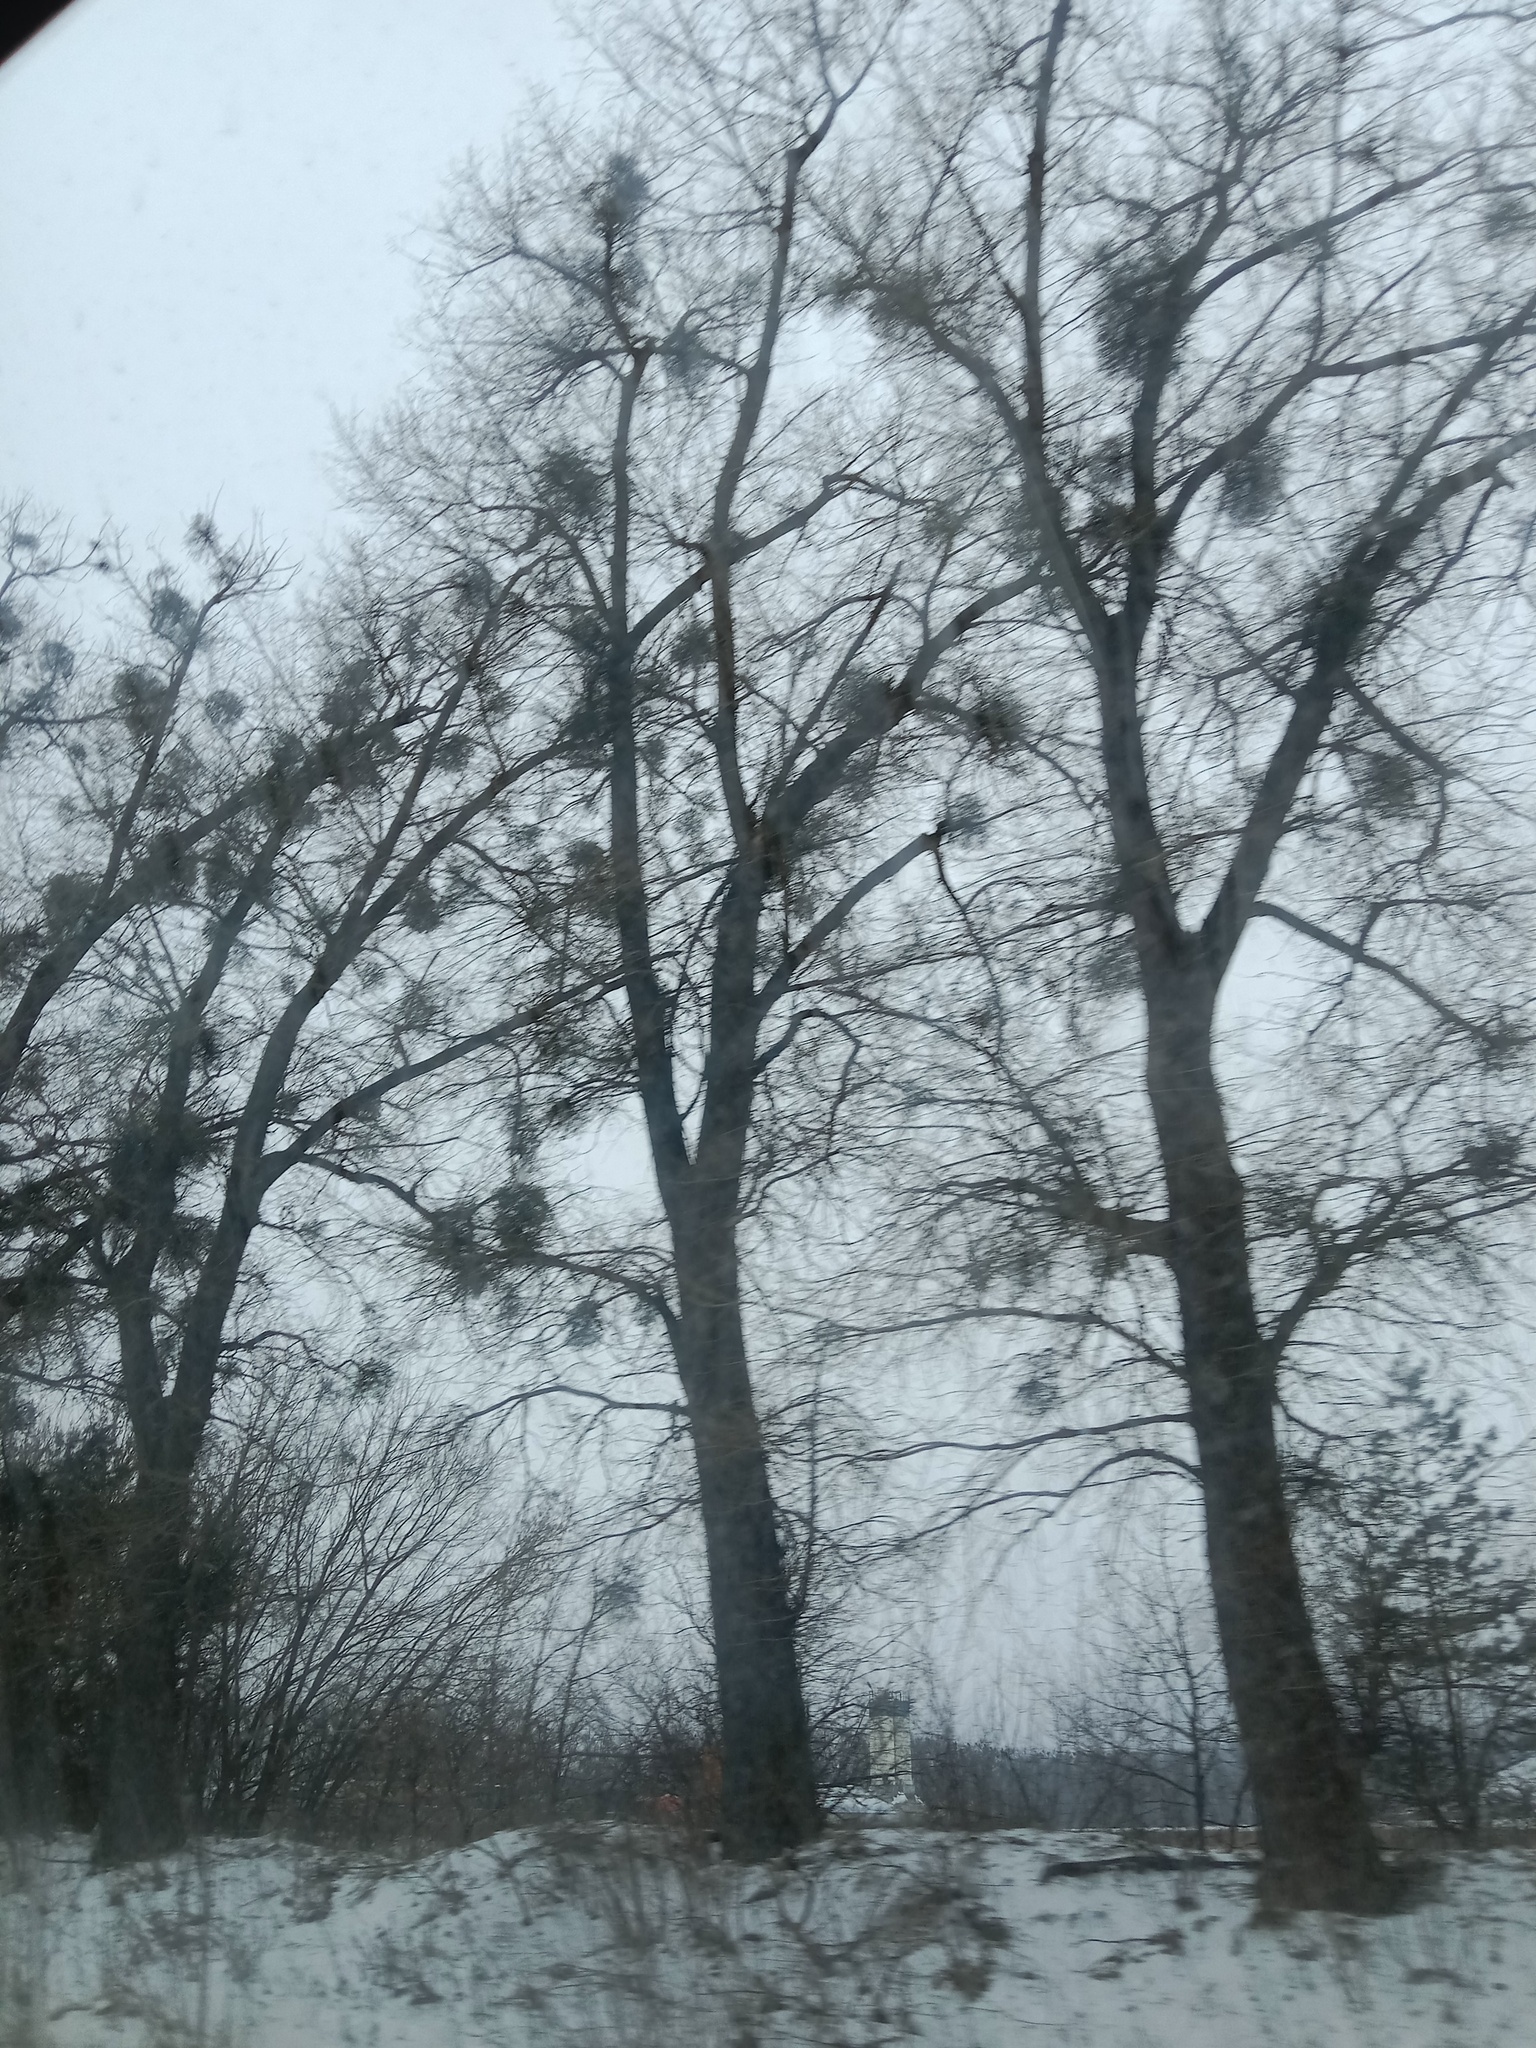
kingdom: Plantae
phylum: Tracheophyta
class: Magnoliopsida
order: Santalales
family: Viscaceae
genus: Viscum
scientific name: Viscum album
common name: Mistletoe
